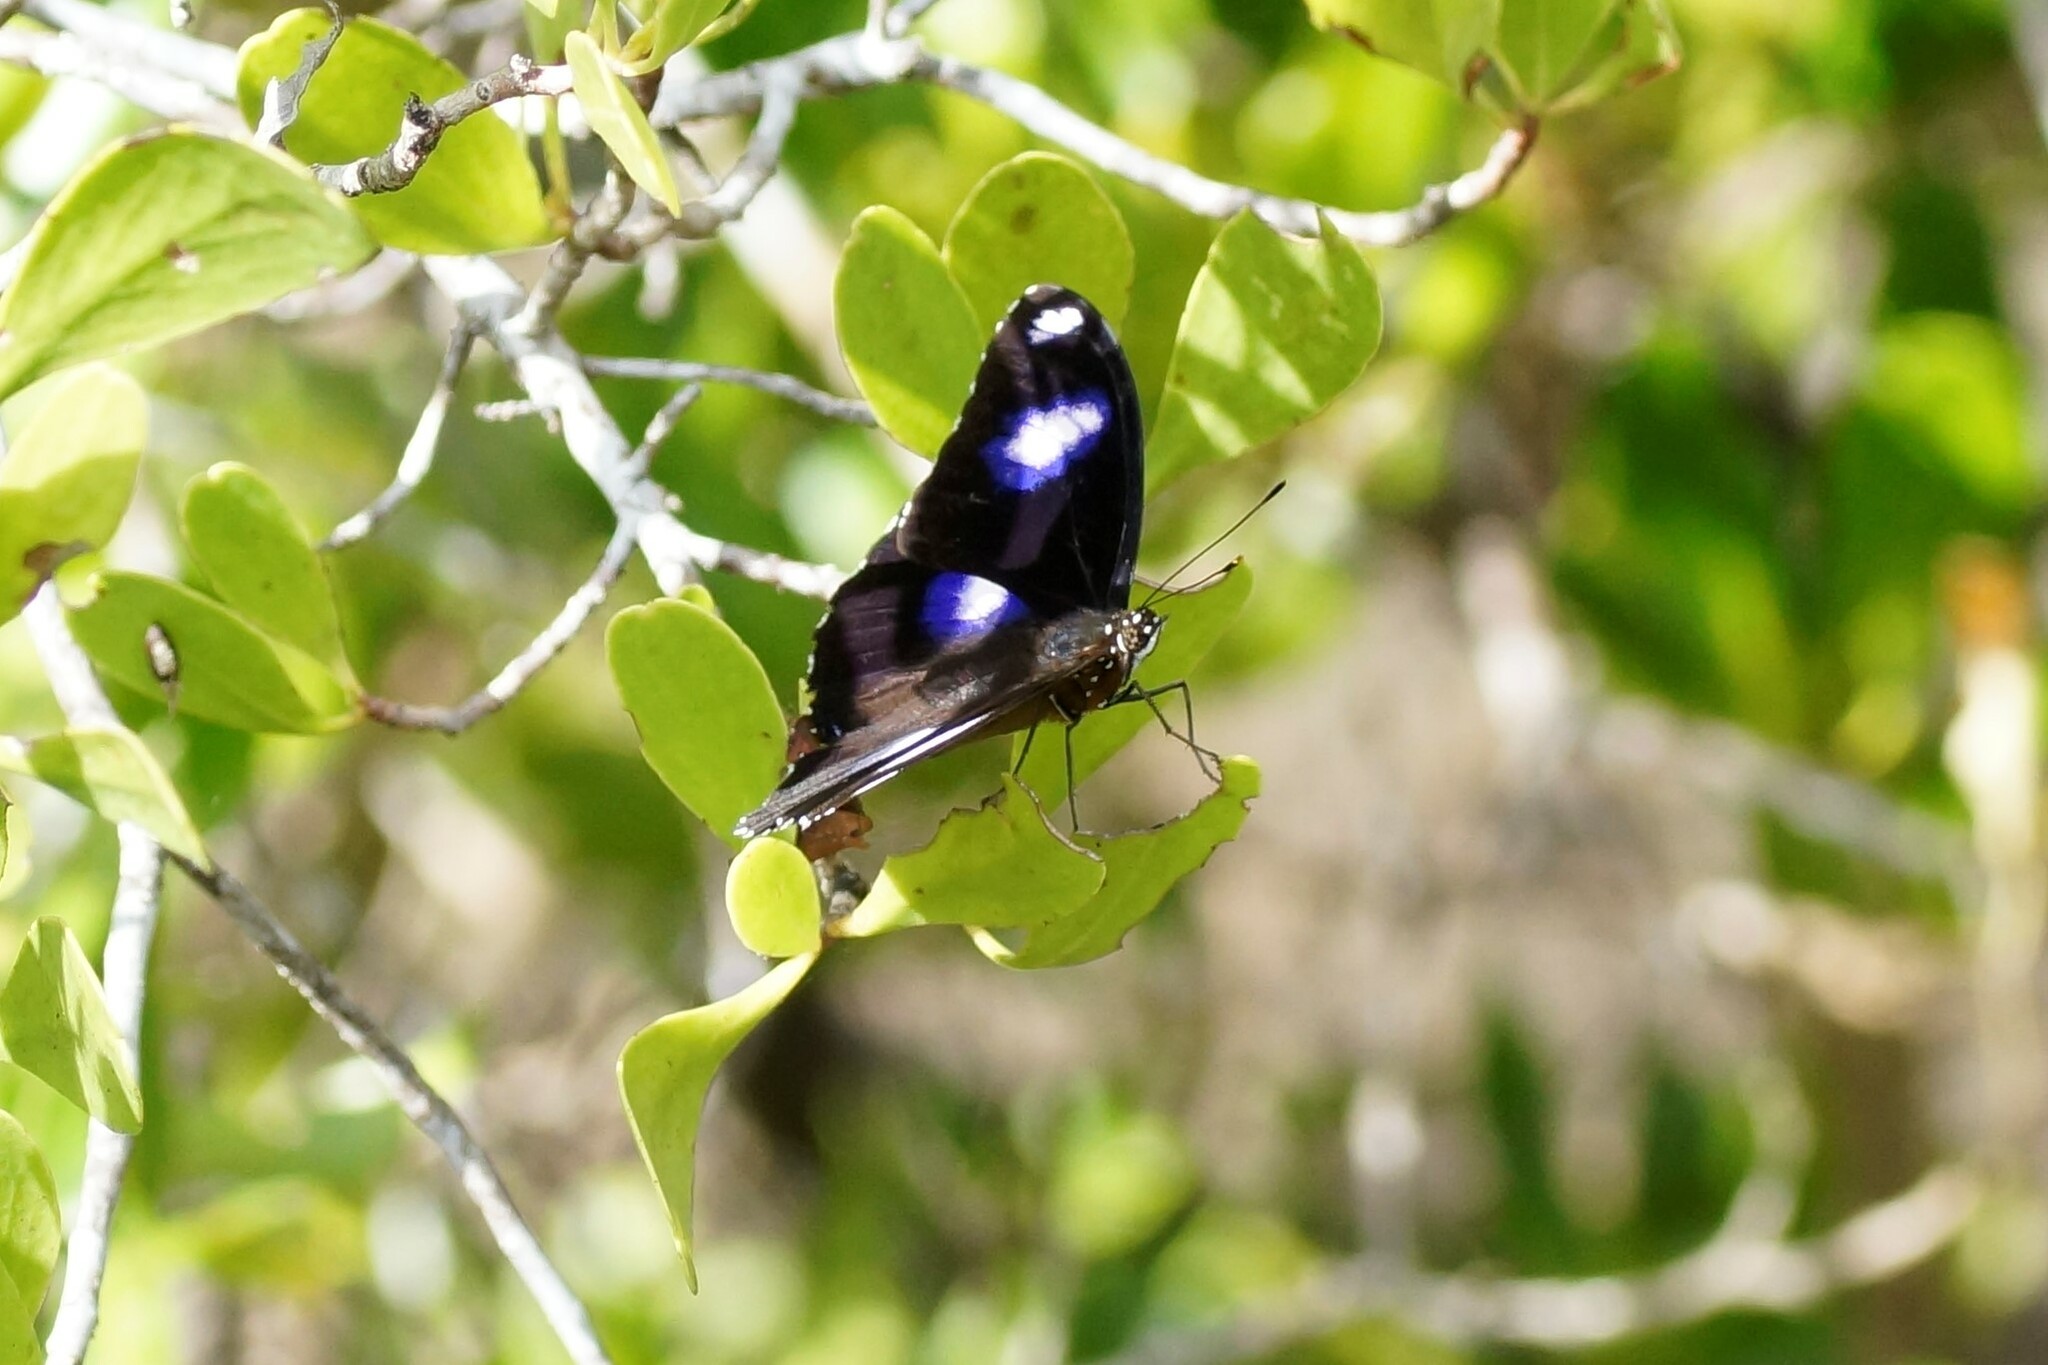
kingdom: Animalia
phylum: Arthropoda
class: Insecta
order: Lepidoptera
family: Nymphalidae
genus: Hypolimnas
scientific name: Hypolimnas bolina
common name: Great eggfly
